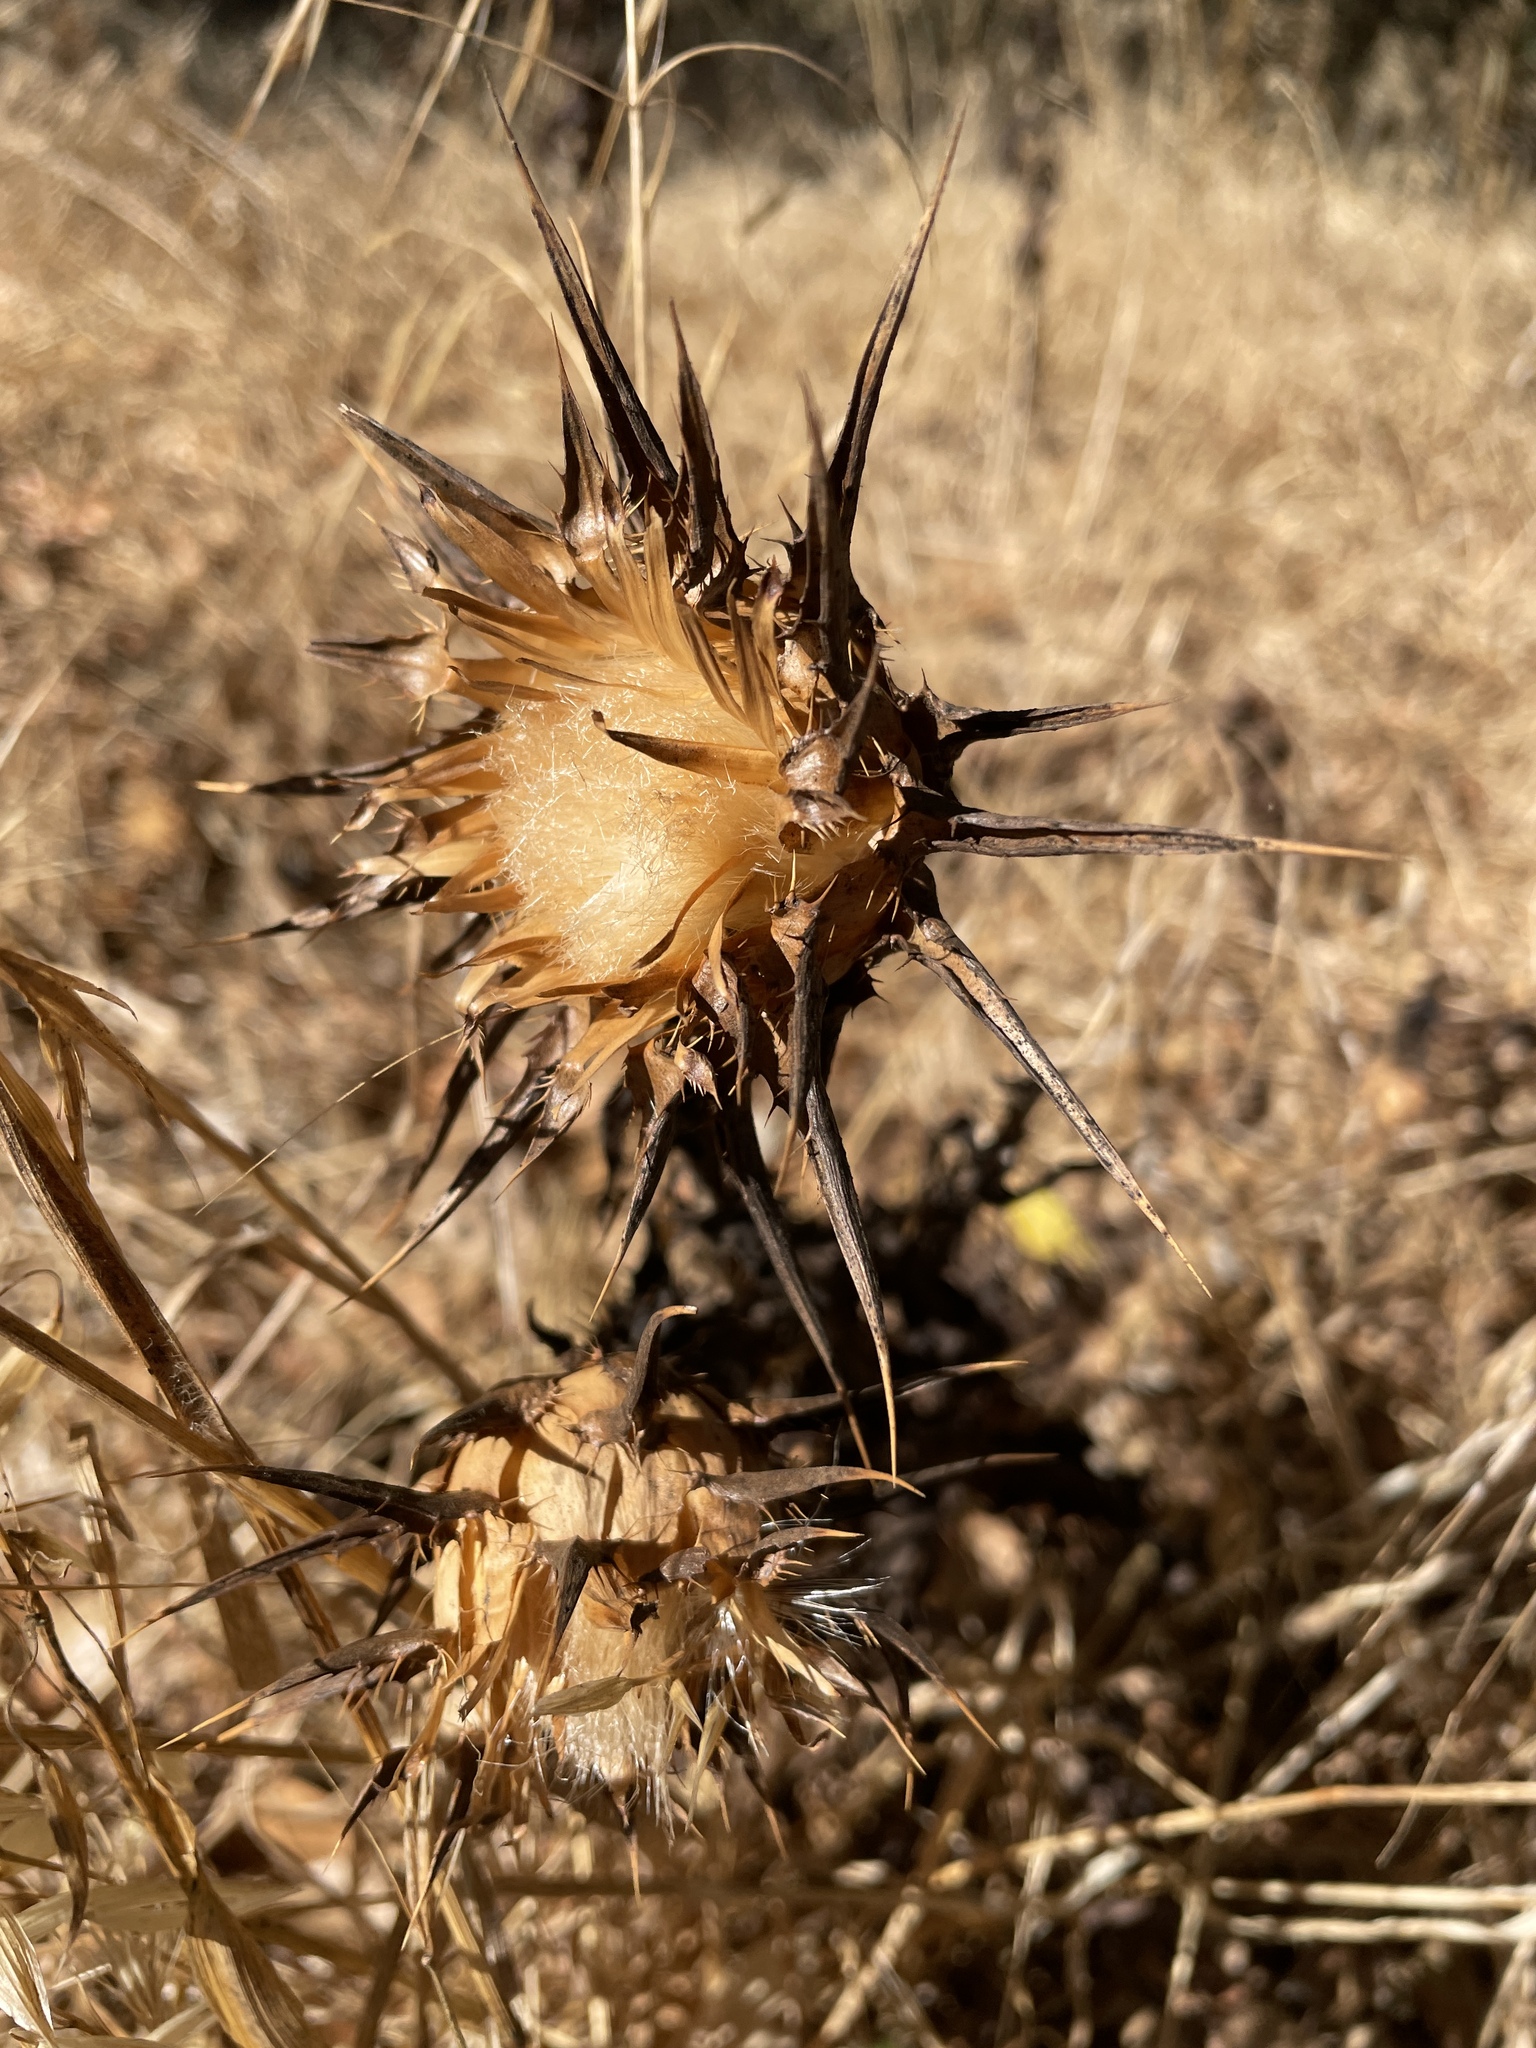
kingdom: Plantae
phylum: Tracheophyta
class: Magnoliopsida
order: Asterales
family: Asteraceae
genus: Silybum
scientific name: Silybum marianum
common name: Milk thistle
